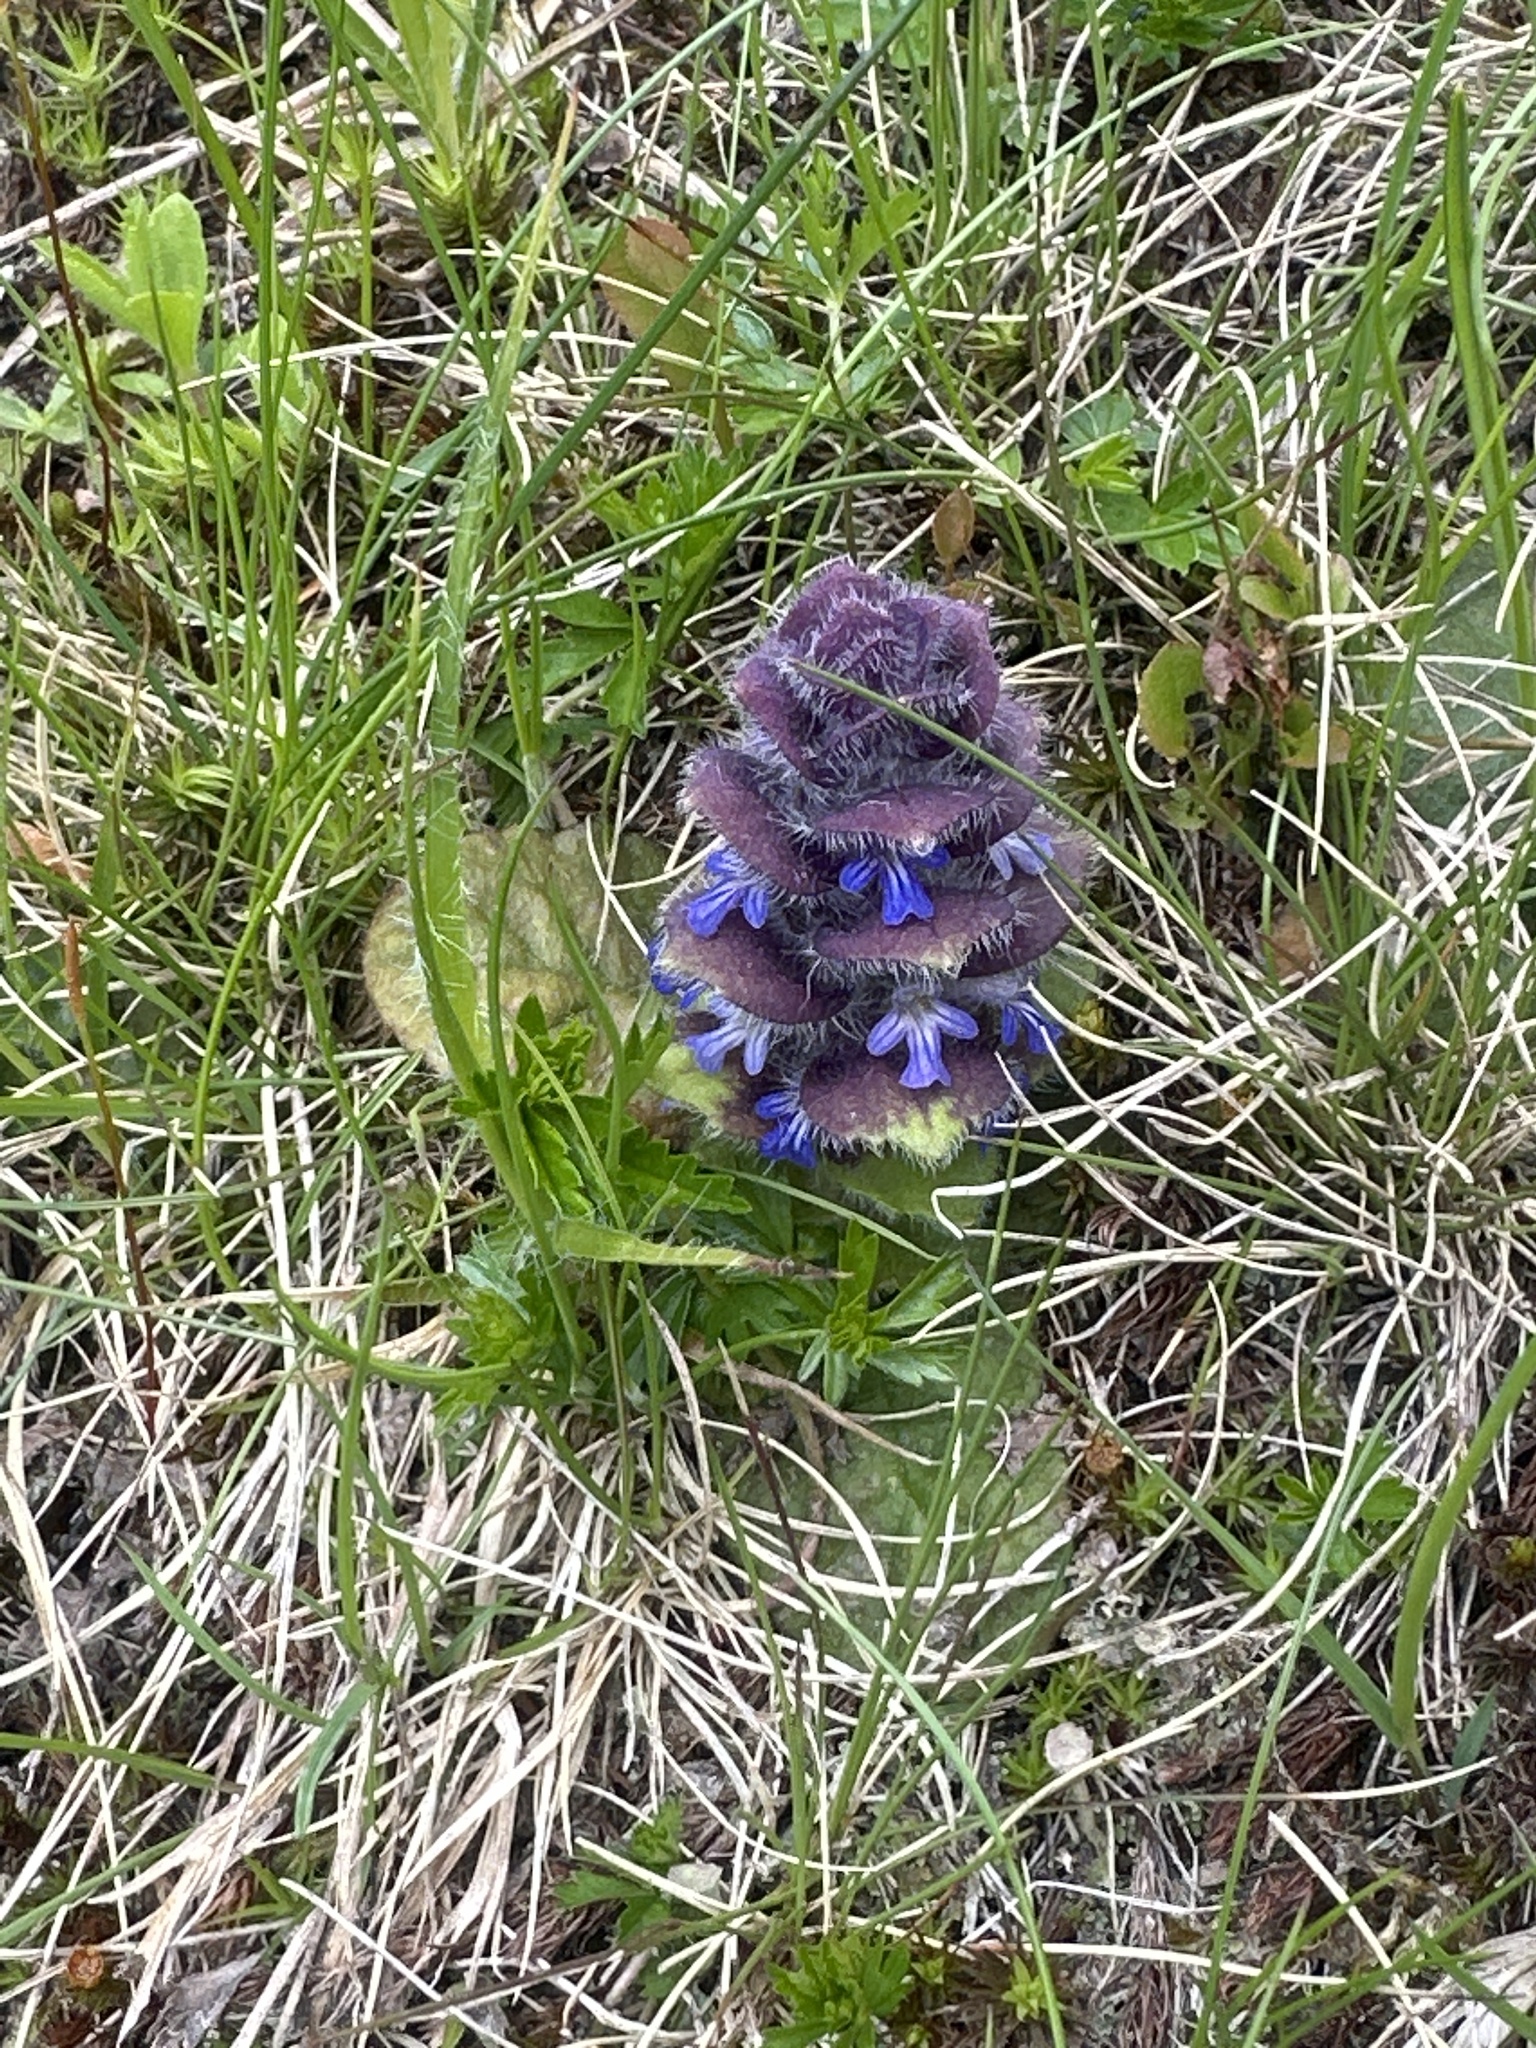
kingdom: Plantae
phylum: Tracheophyta
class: Magnoliopsida
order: Lamiales
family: Lamiaceae
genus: Ajuga
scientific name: Ajuga pyramidalis
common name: Pyramid bugle
